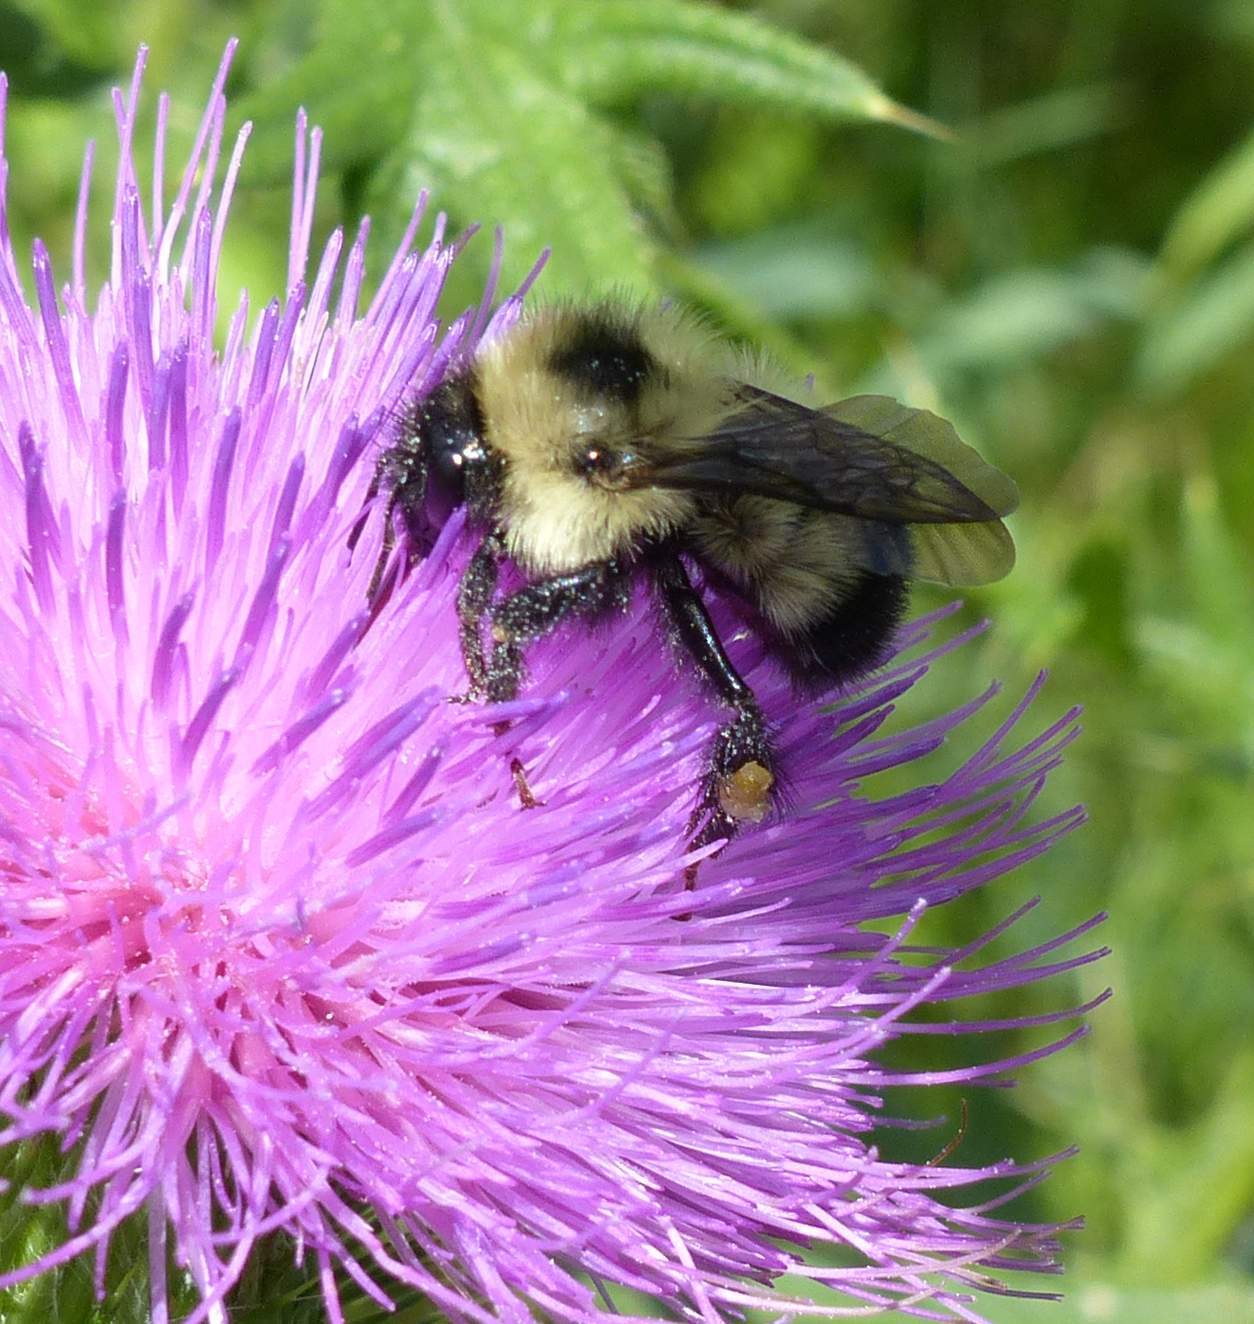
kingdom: Animalia
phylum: Arthropoda
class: Insecta
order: Hymenoptera
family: Apidae
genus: Bombus
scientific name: Bombus vagans
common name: Half-black bumble bee
